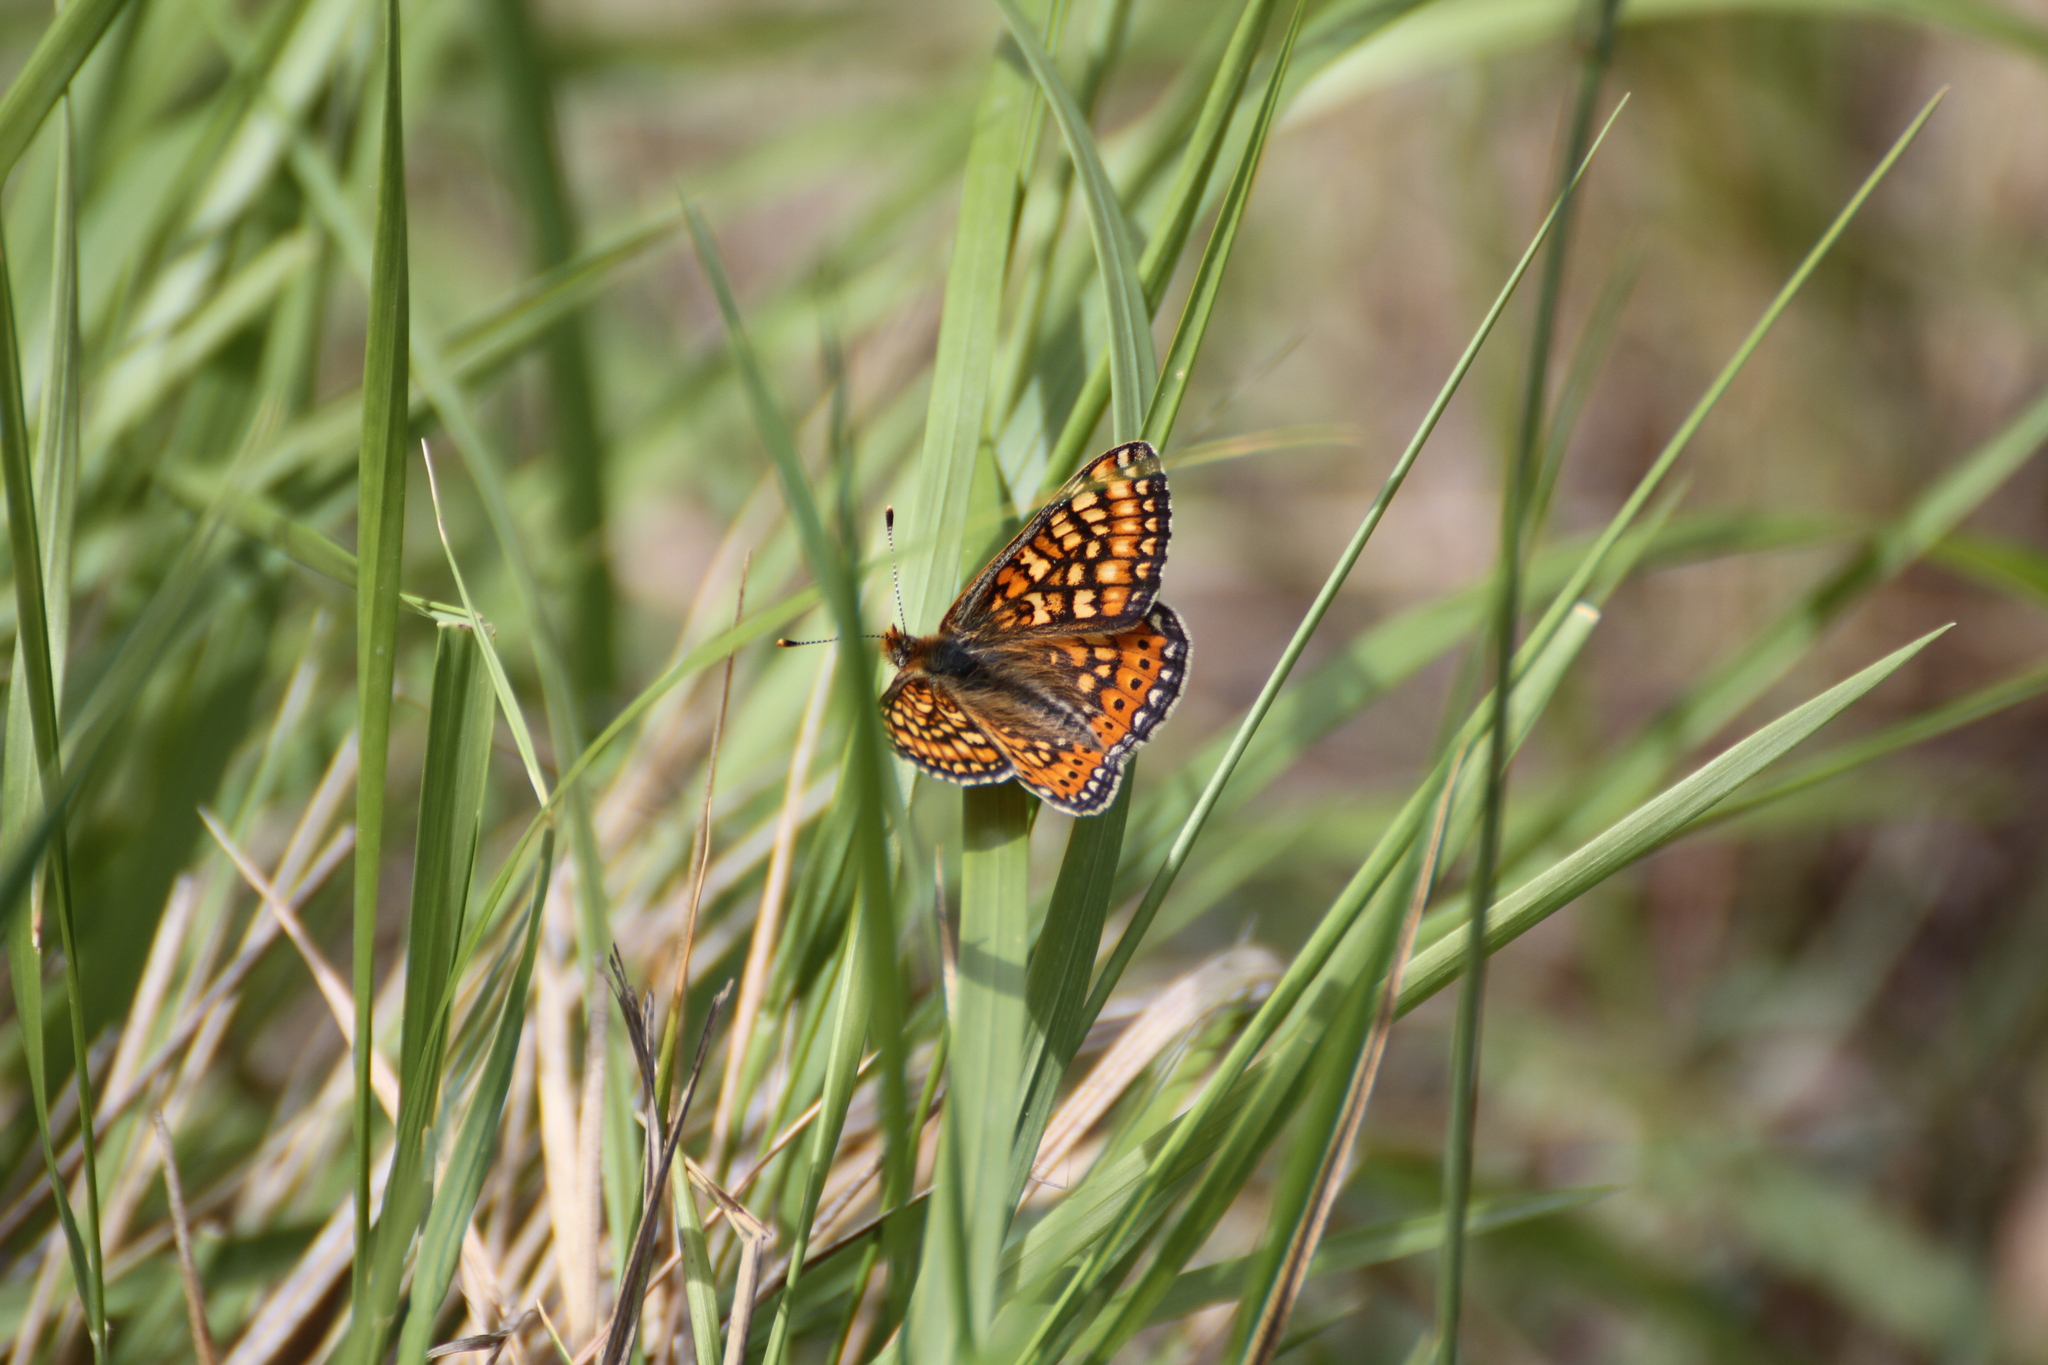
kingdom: Animalia
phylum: Arthropoda
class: Insecta
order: Lepidoptera
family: Nymphalidae
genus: Euphydryas
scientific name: Euphydryas aurinia
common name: Marsh fritillary
